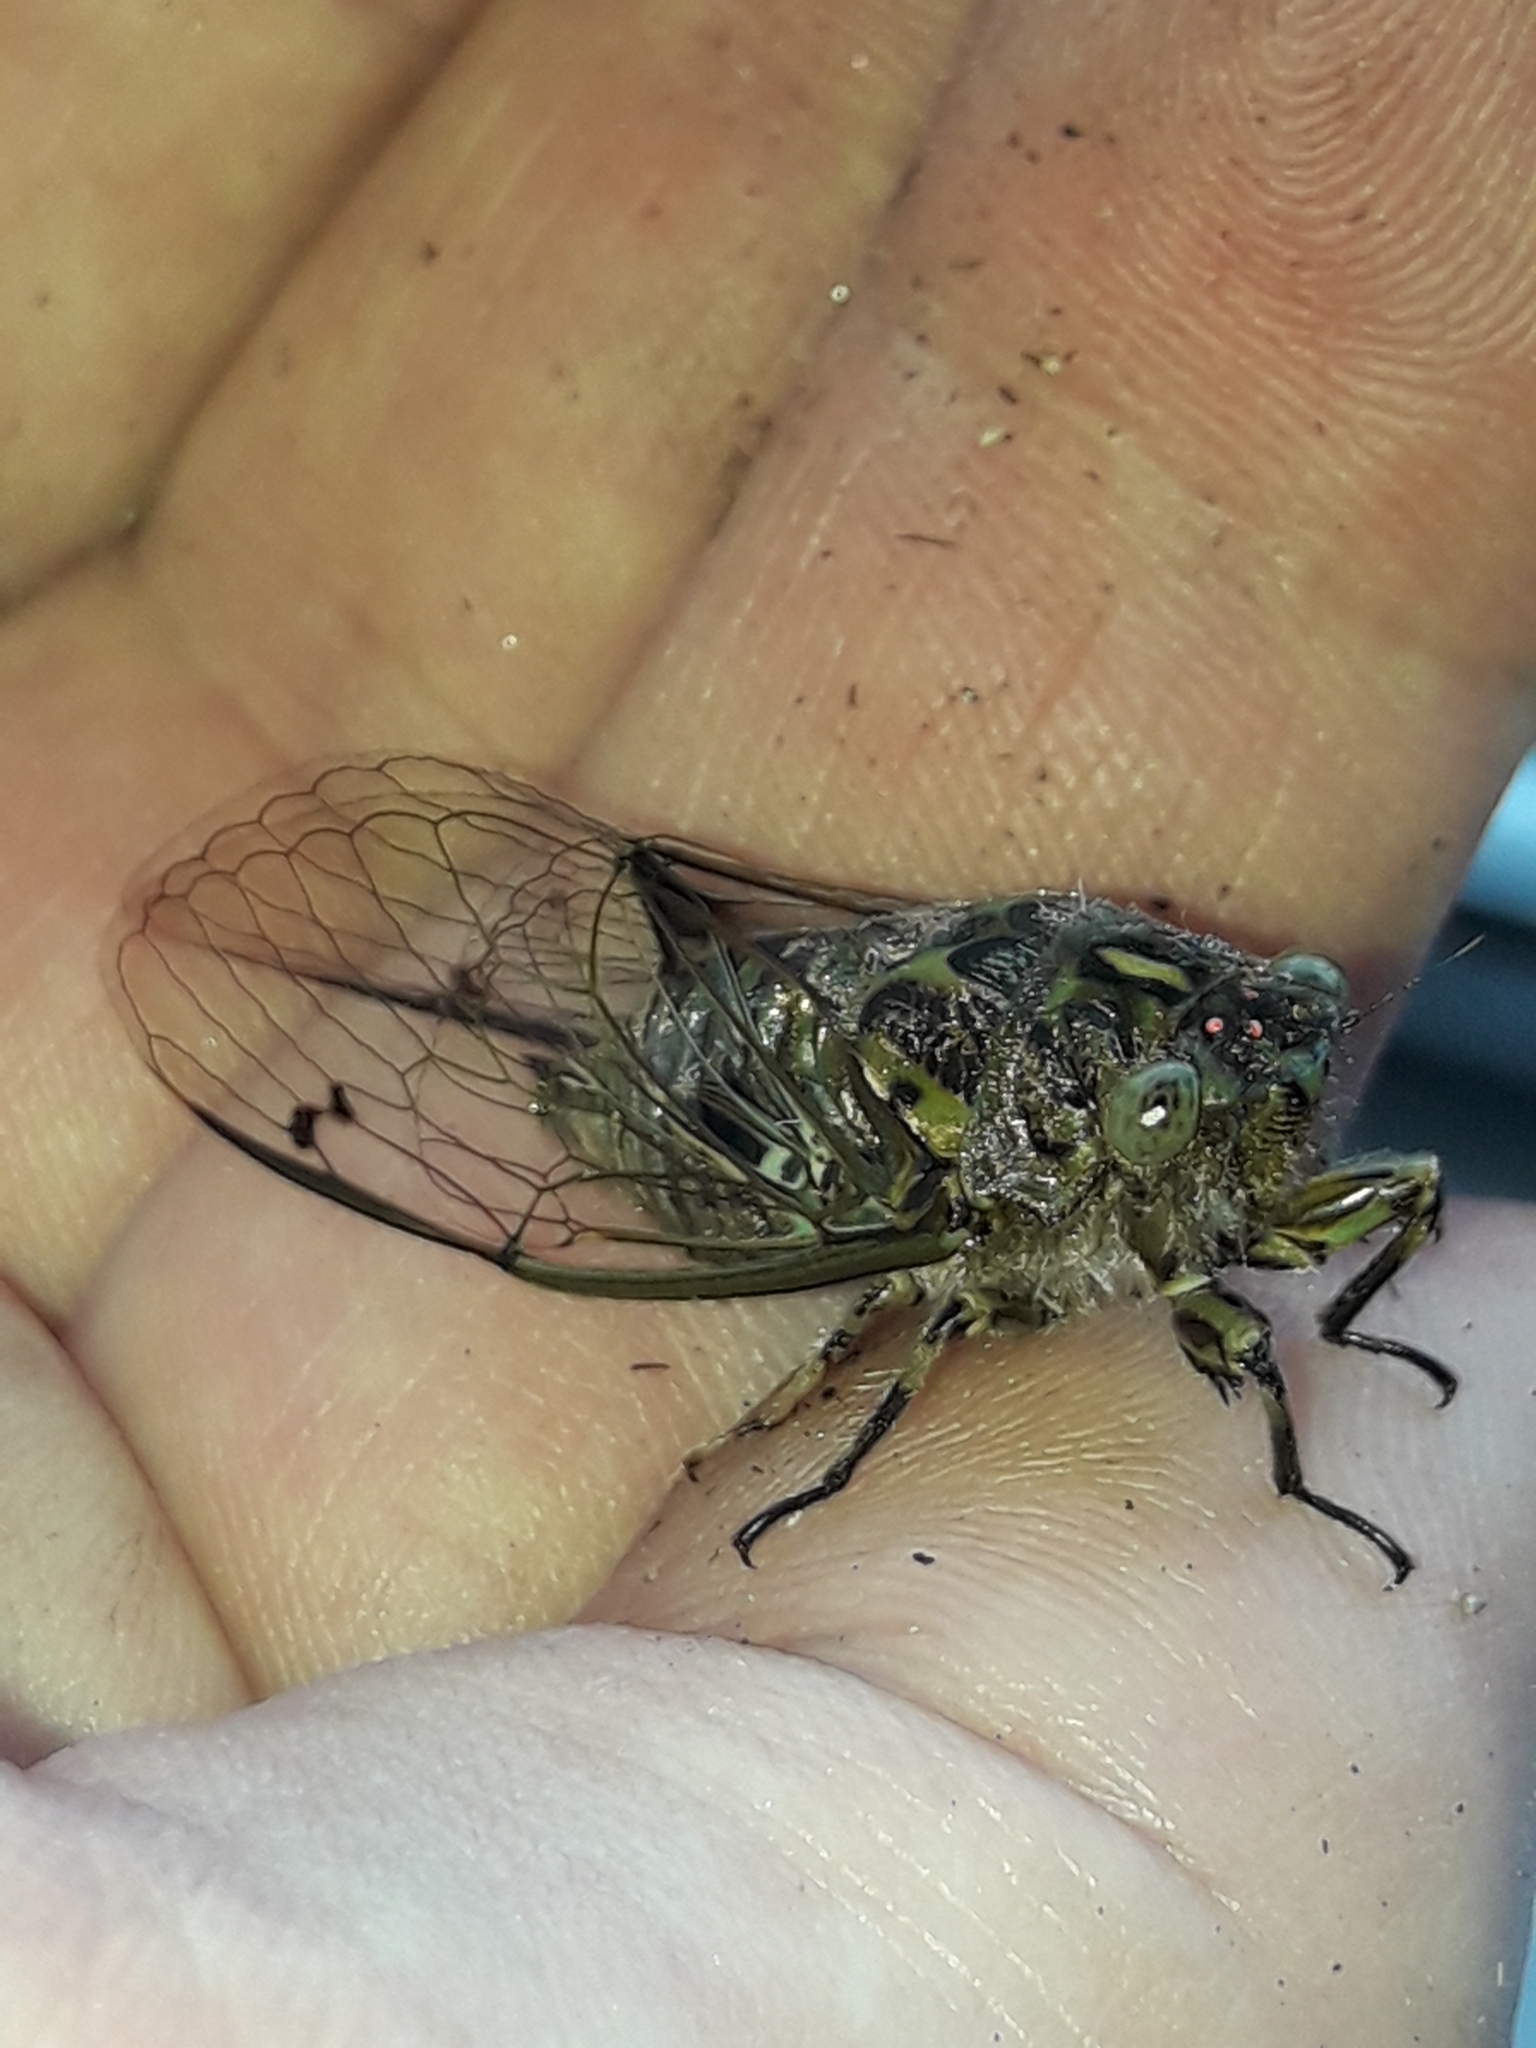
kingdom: Animalia
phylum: Arthropoda
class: Insecta
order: Hemiptera
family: Cicadidae
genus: Amphipsalta
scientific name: Amphipsalta zelandica
